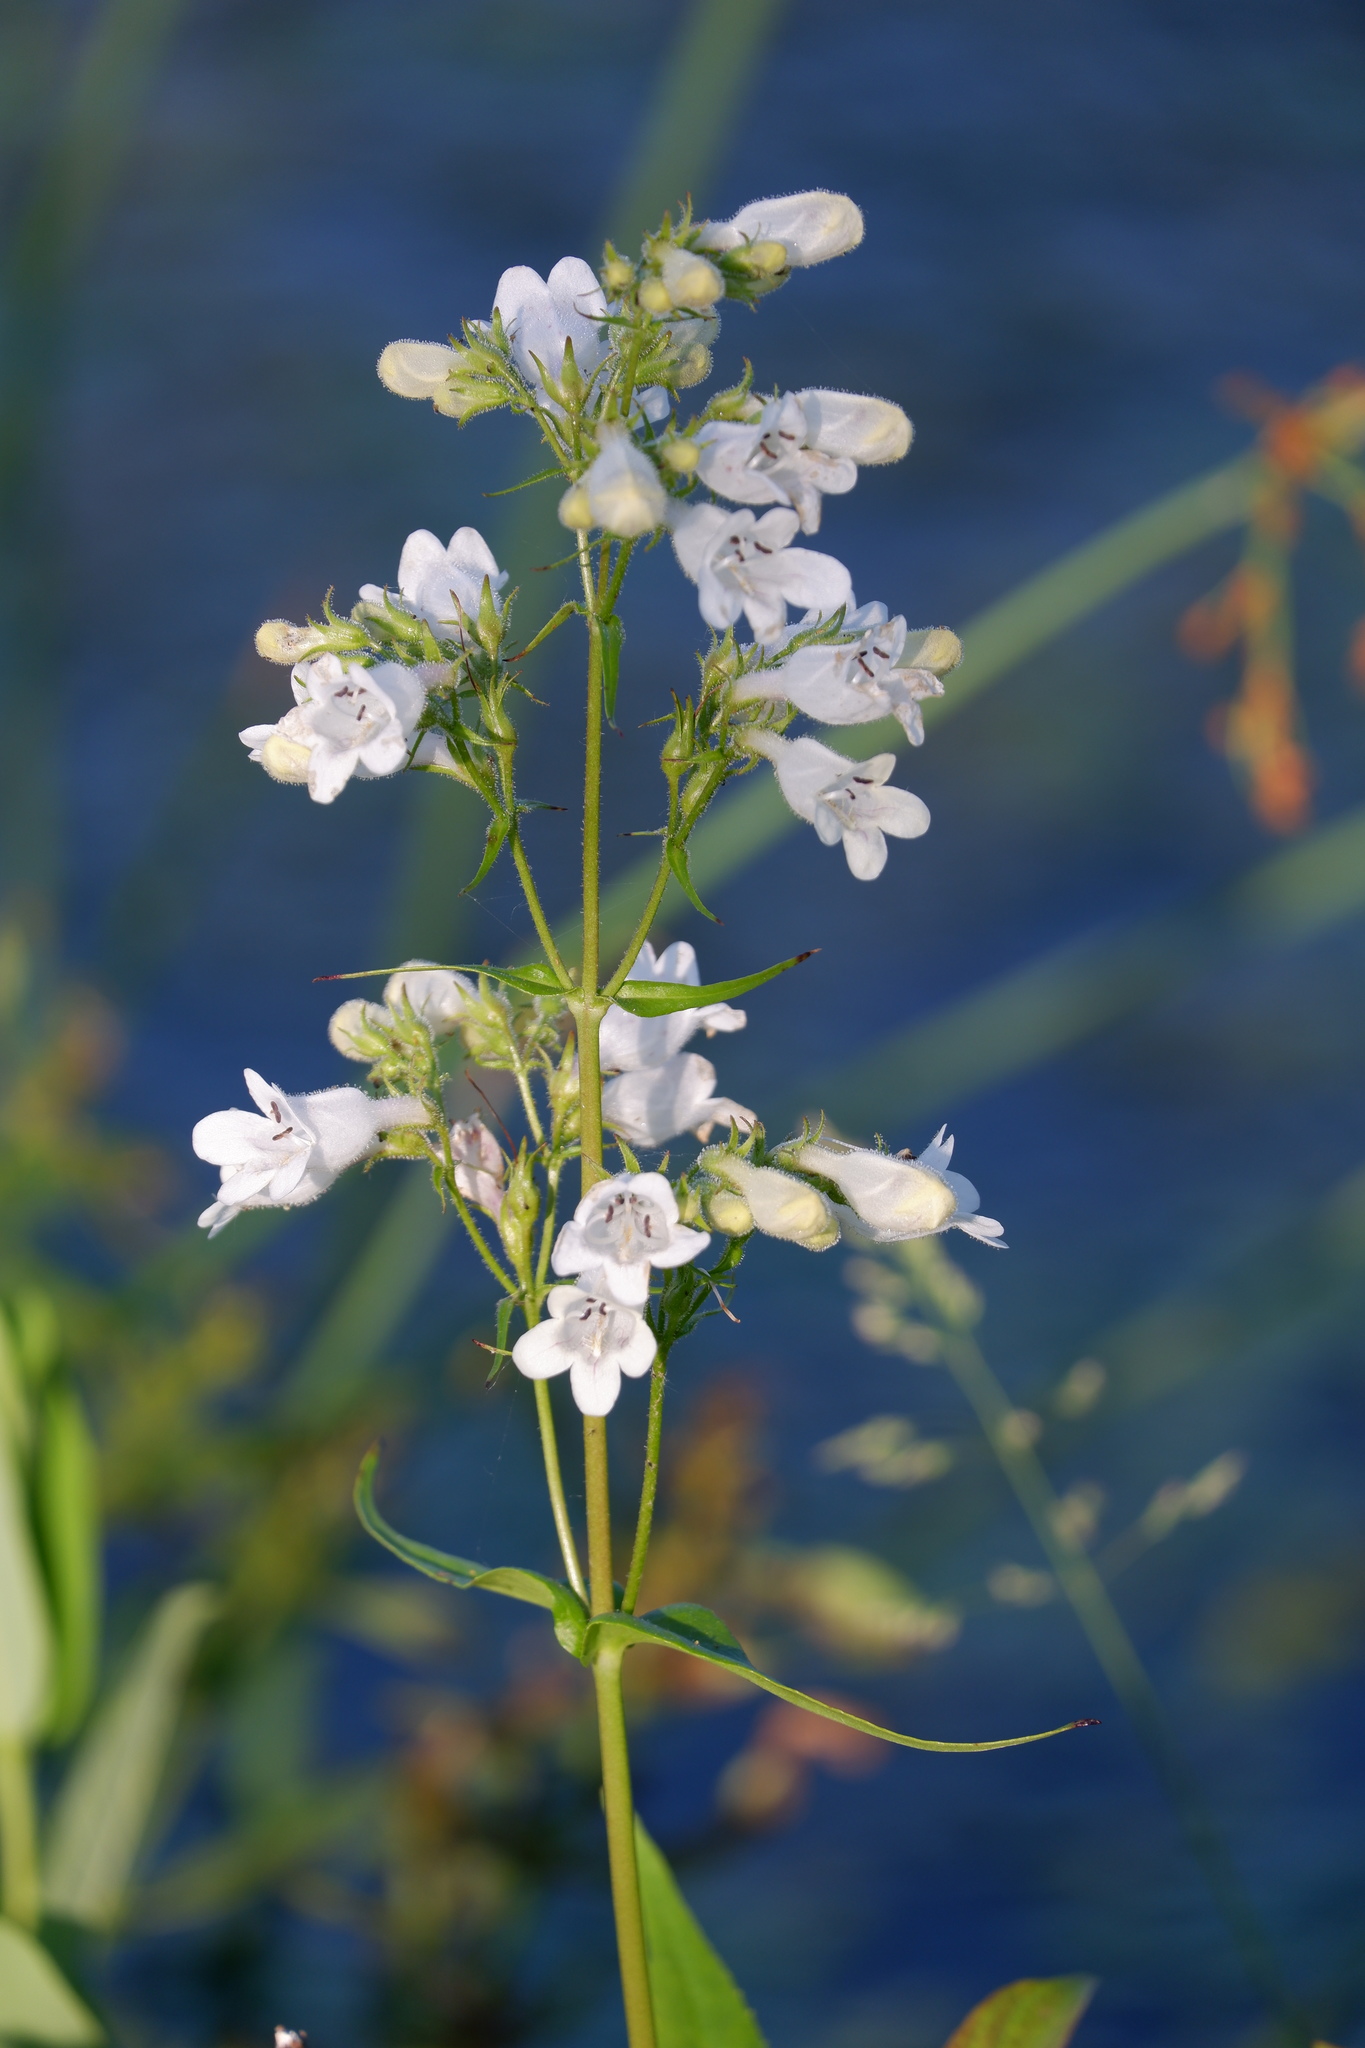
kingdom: Plantae
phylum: Tracheophyta
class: Magnoliopsida
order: Lamiales
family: Plantaginaceae
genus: Penstemon
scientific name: Penstemon digitalis
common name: Foxglove beardtongue
